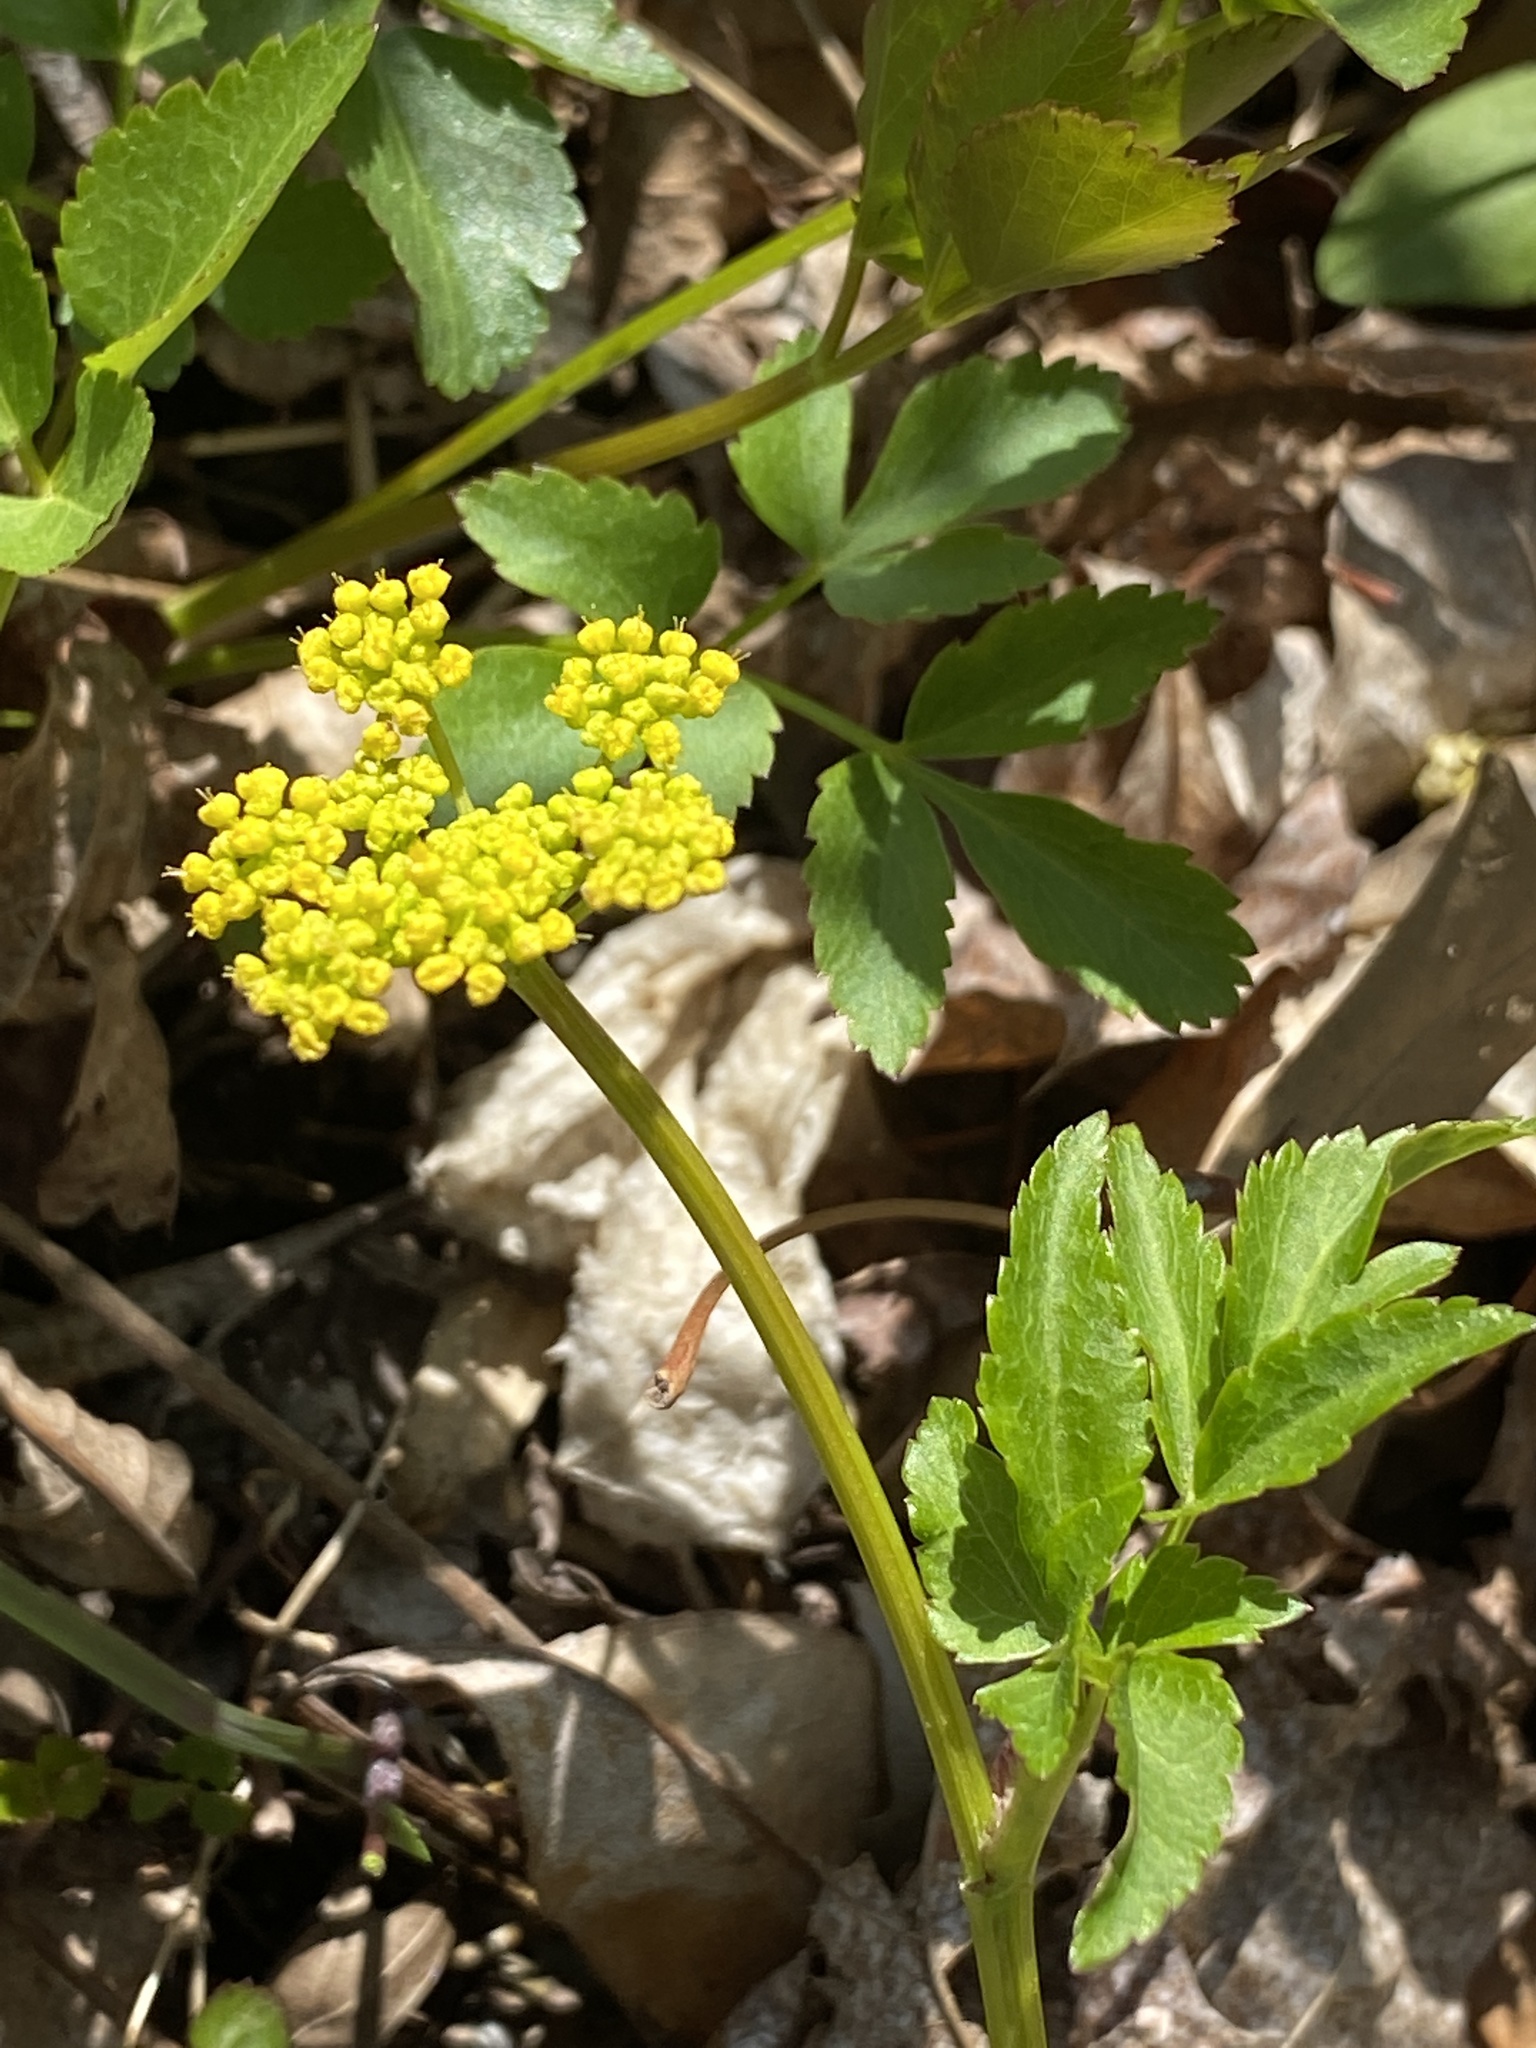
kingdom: Plantae
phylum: Tracheophyta
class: Magnoliopsida
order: Apiales
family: Apiaceae
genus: Zizia
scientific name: Zizia aurea
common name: Golden alexanders
